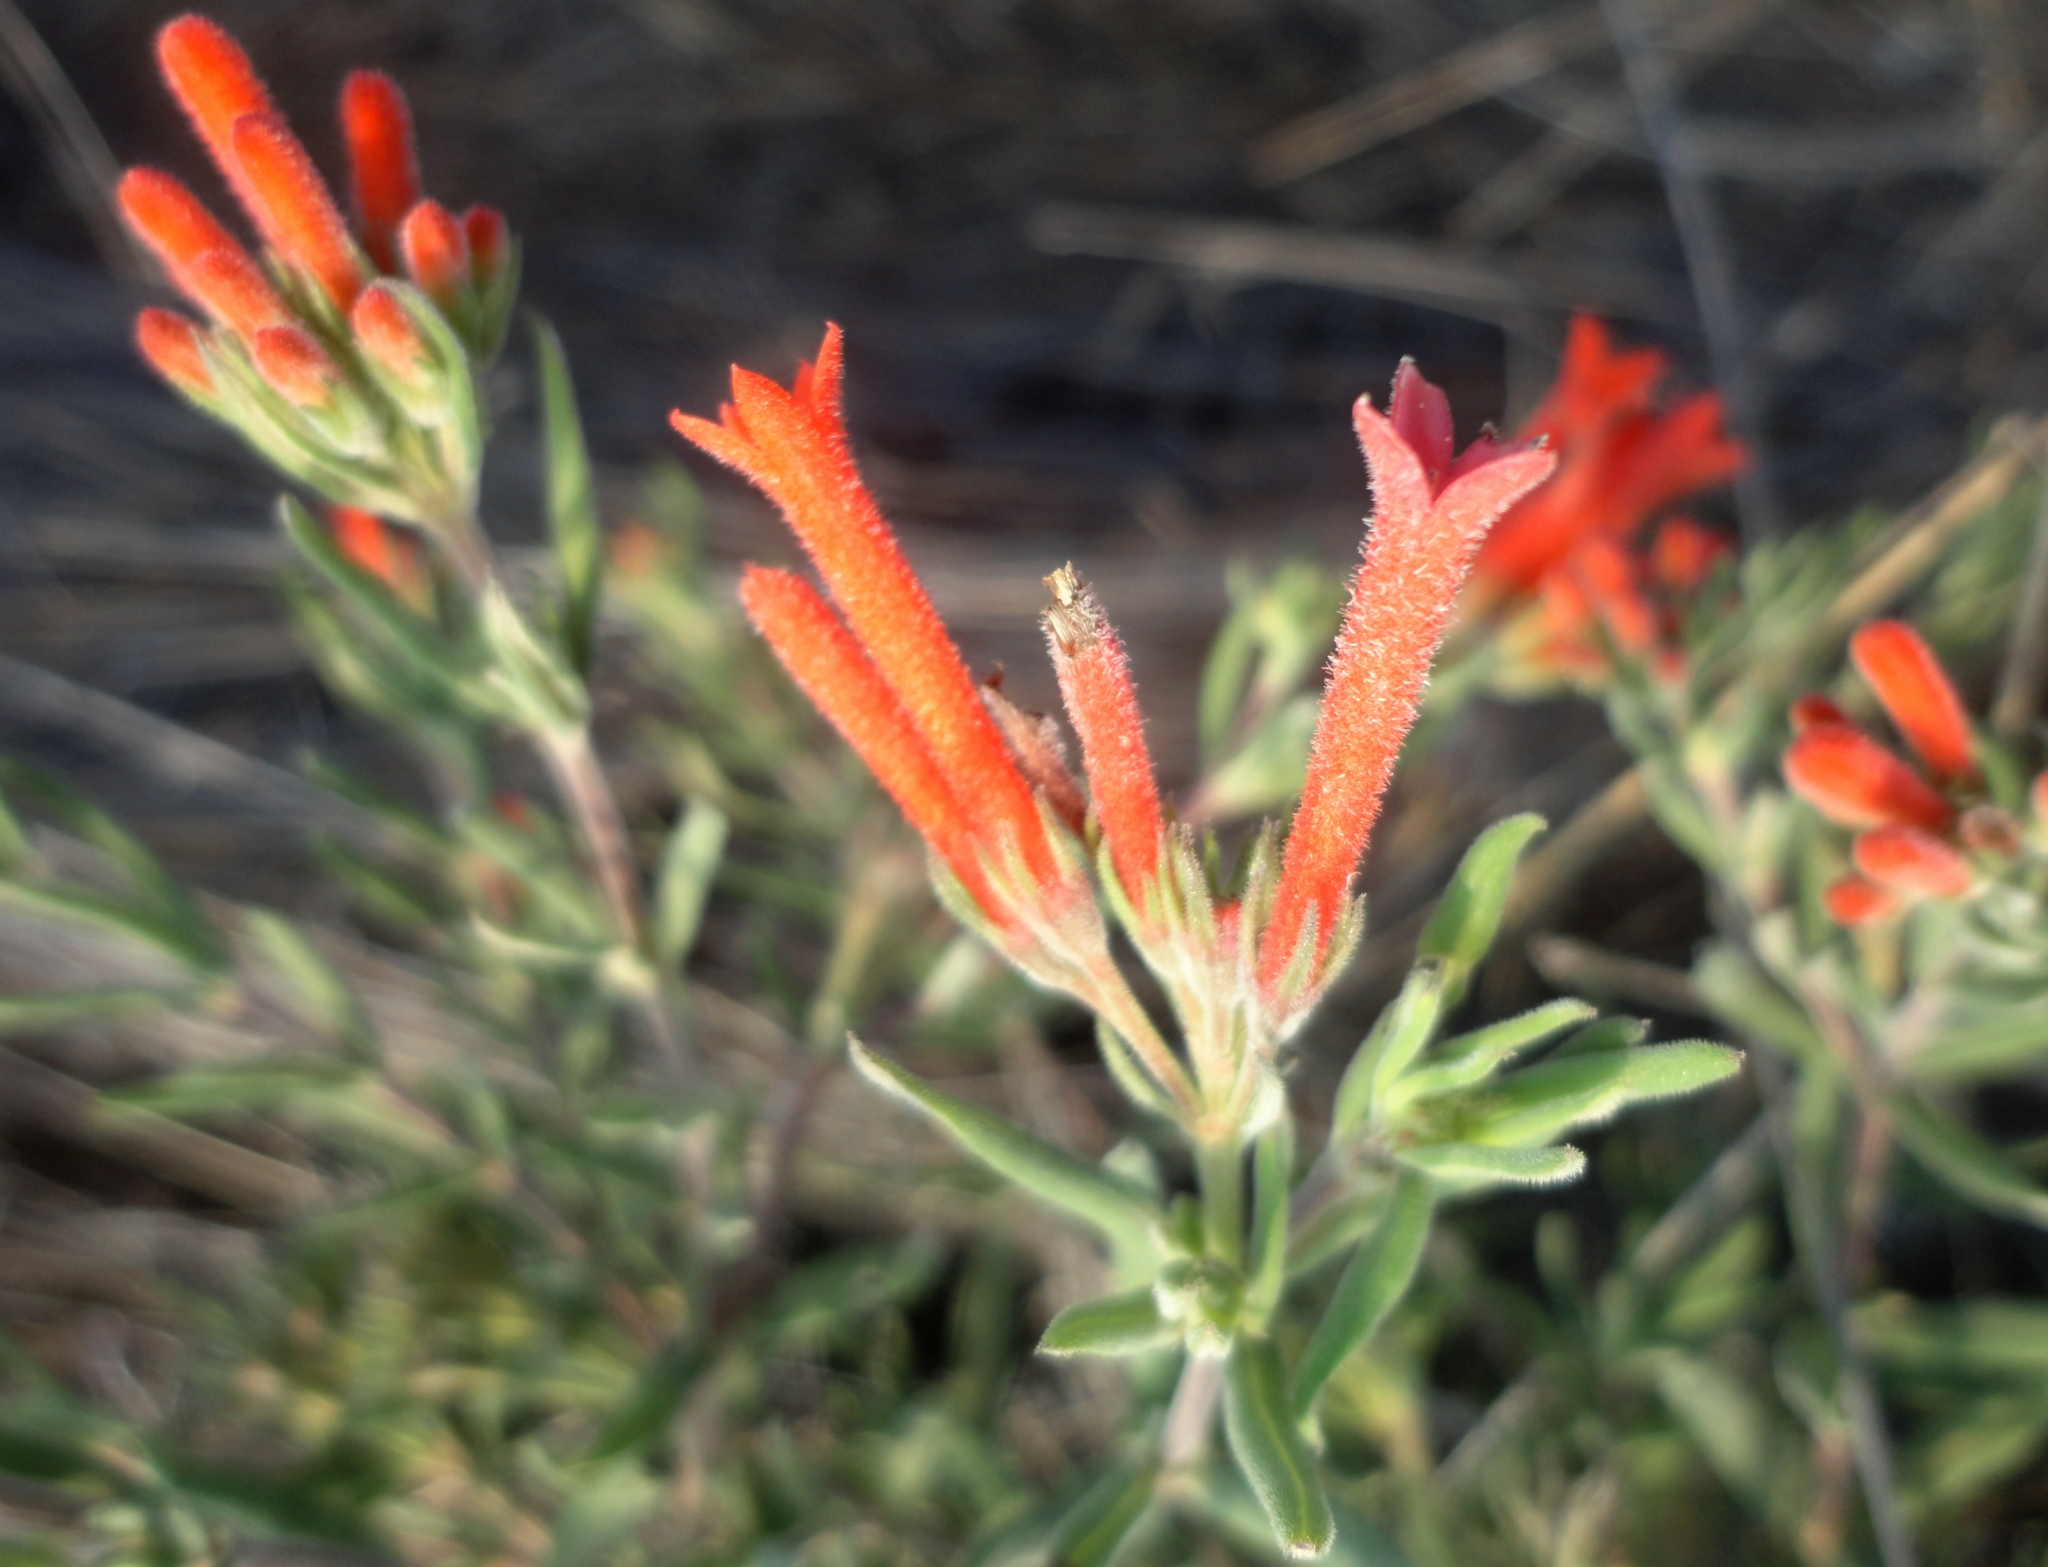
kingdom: Plantae
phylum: Tracheophyta
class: Magnoliopsida
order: Gentianales
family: Rubiaceae
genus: Bouvardia
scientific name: Bouvardia ternifolia
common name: Scarlet bouvardia
